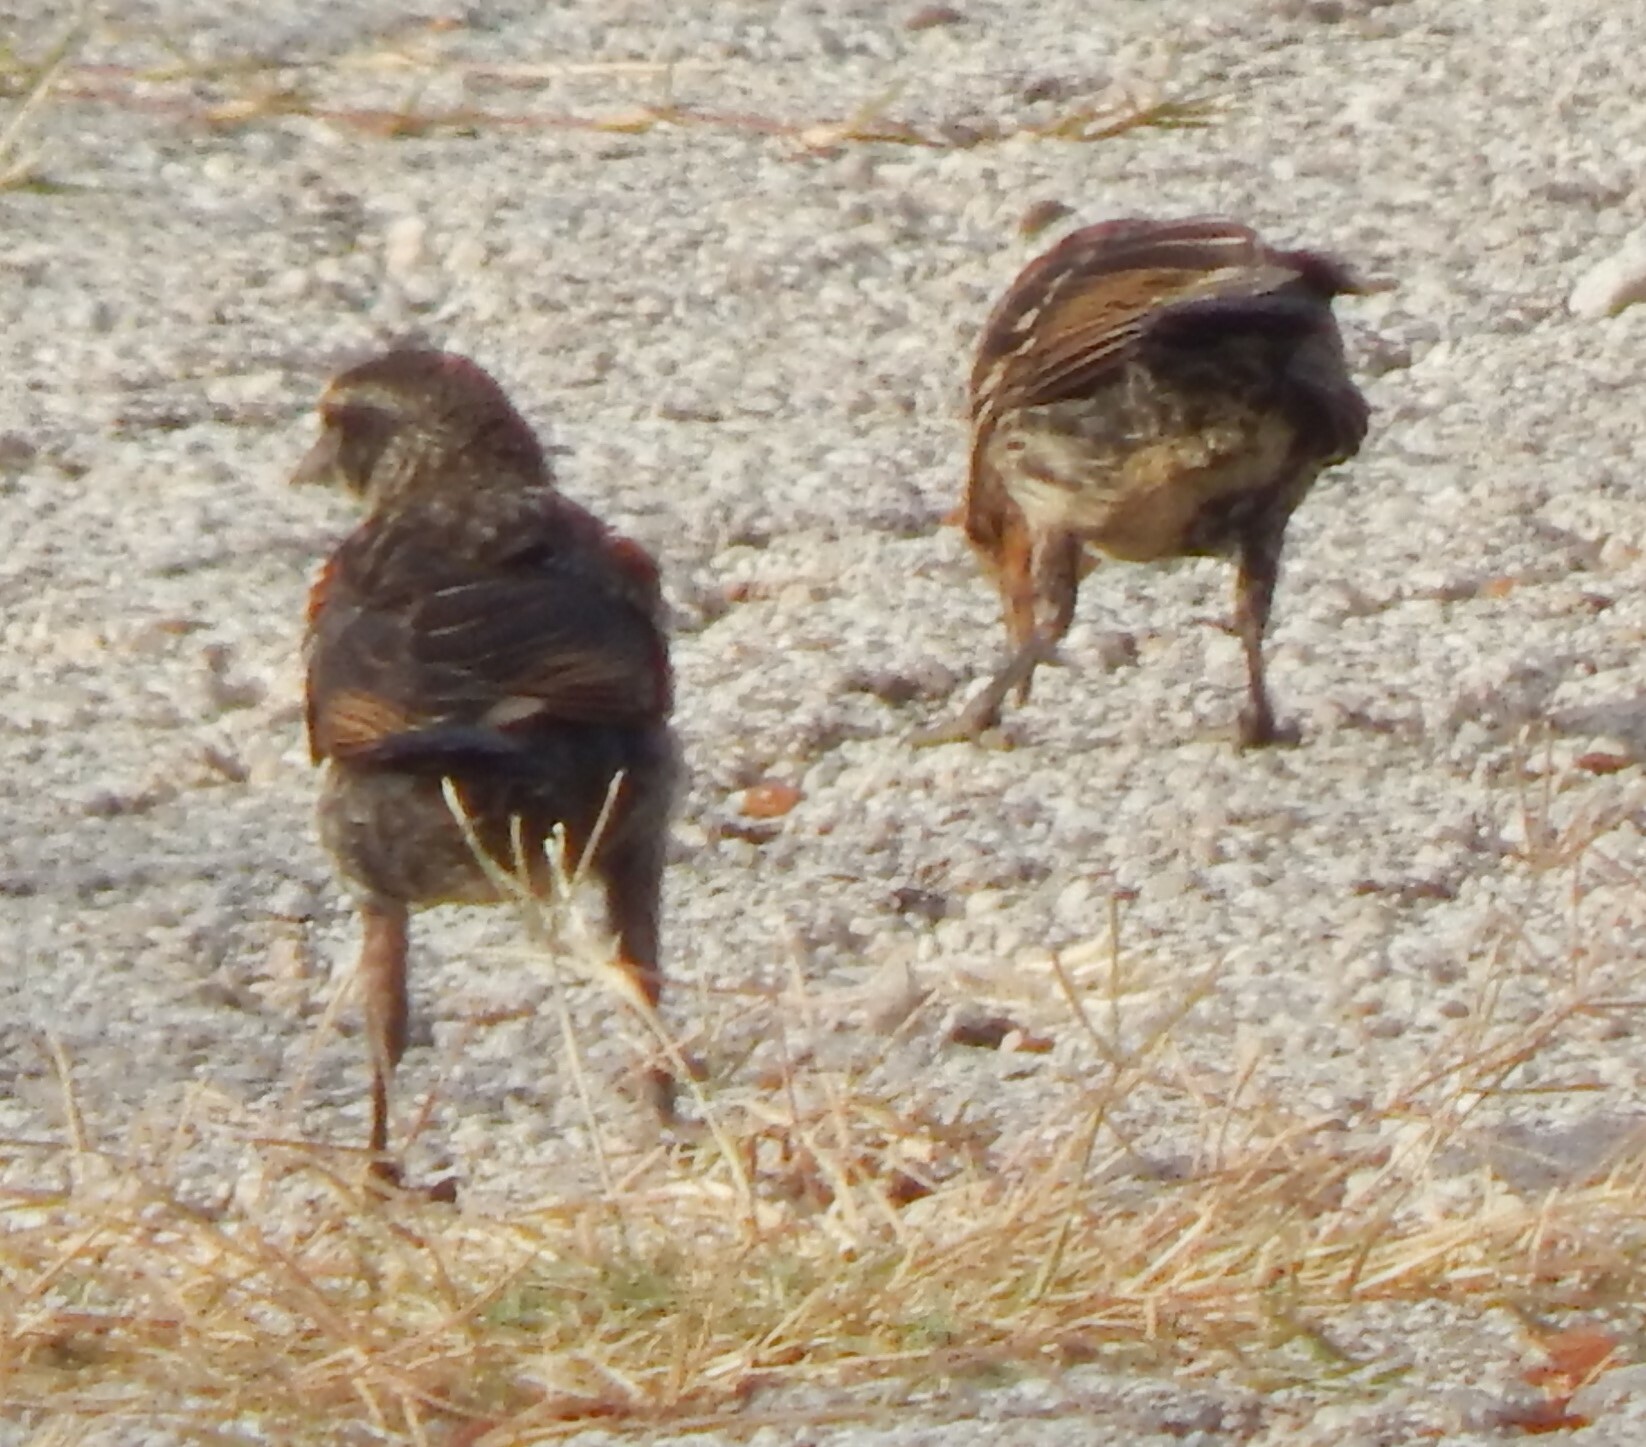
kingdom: Animalia
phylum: Chordata
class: Aves
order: Passeriformes
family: Icteridae
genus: Agelaius
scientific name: Agelaius phoeniceus
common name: Red-winged blackbird
